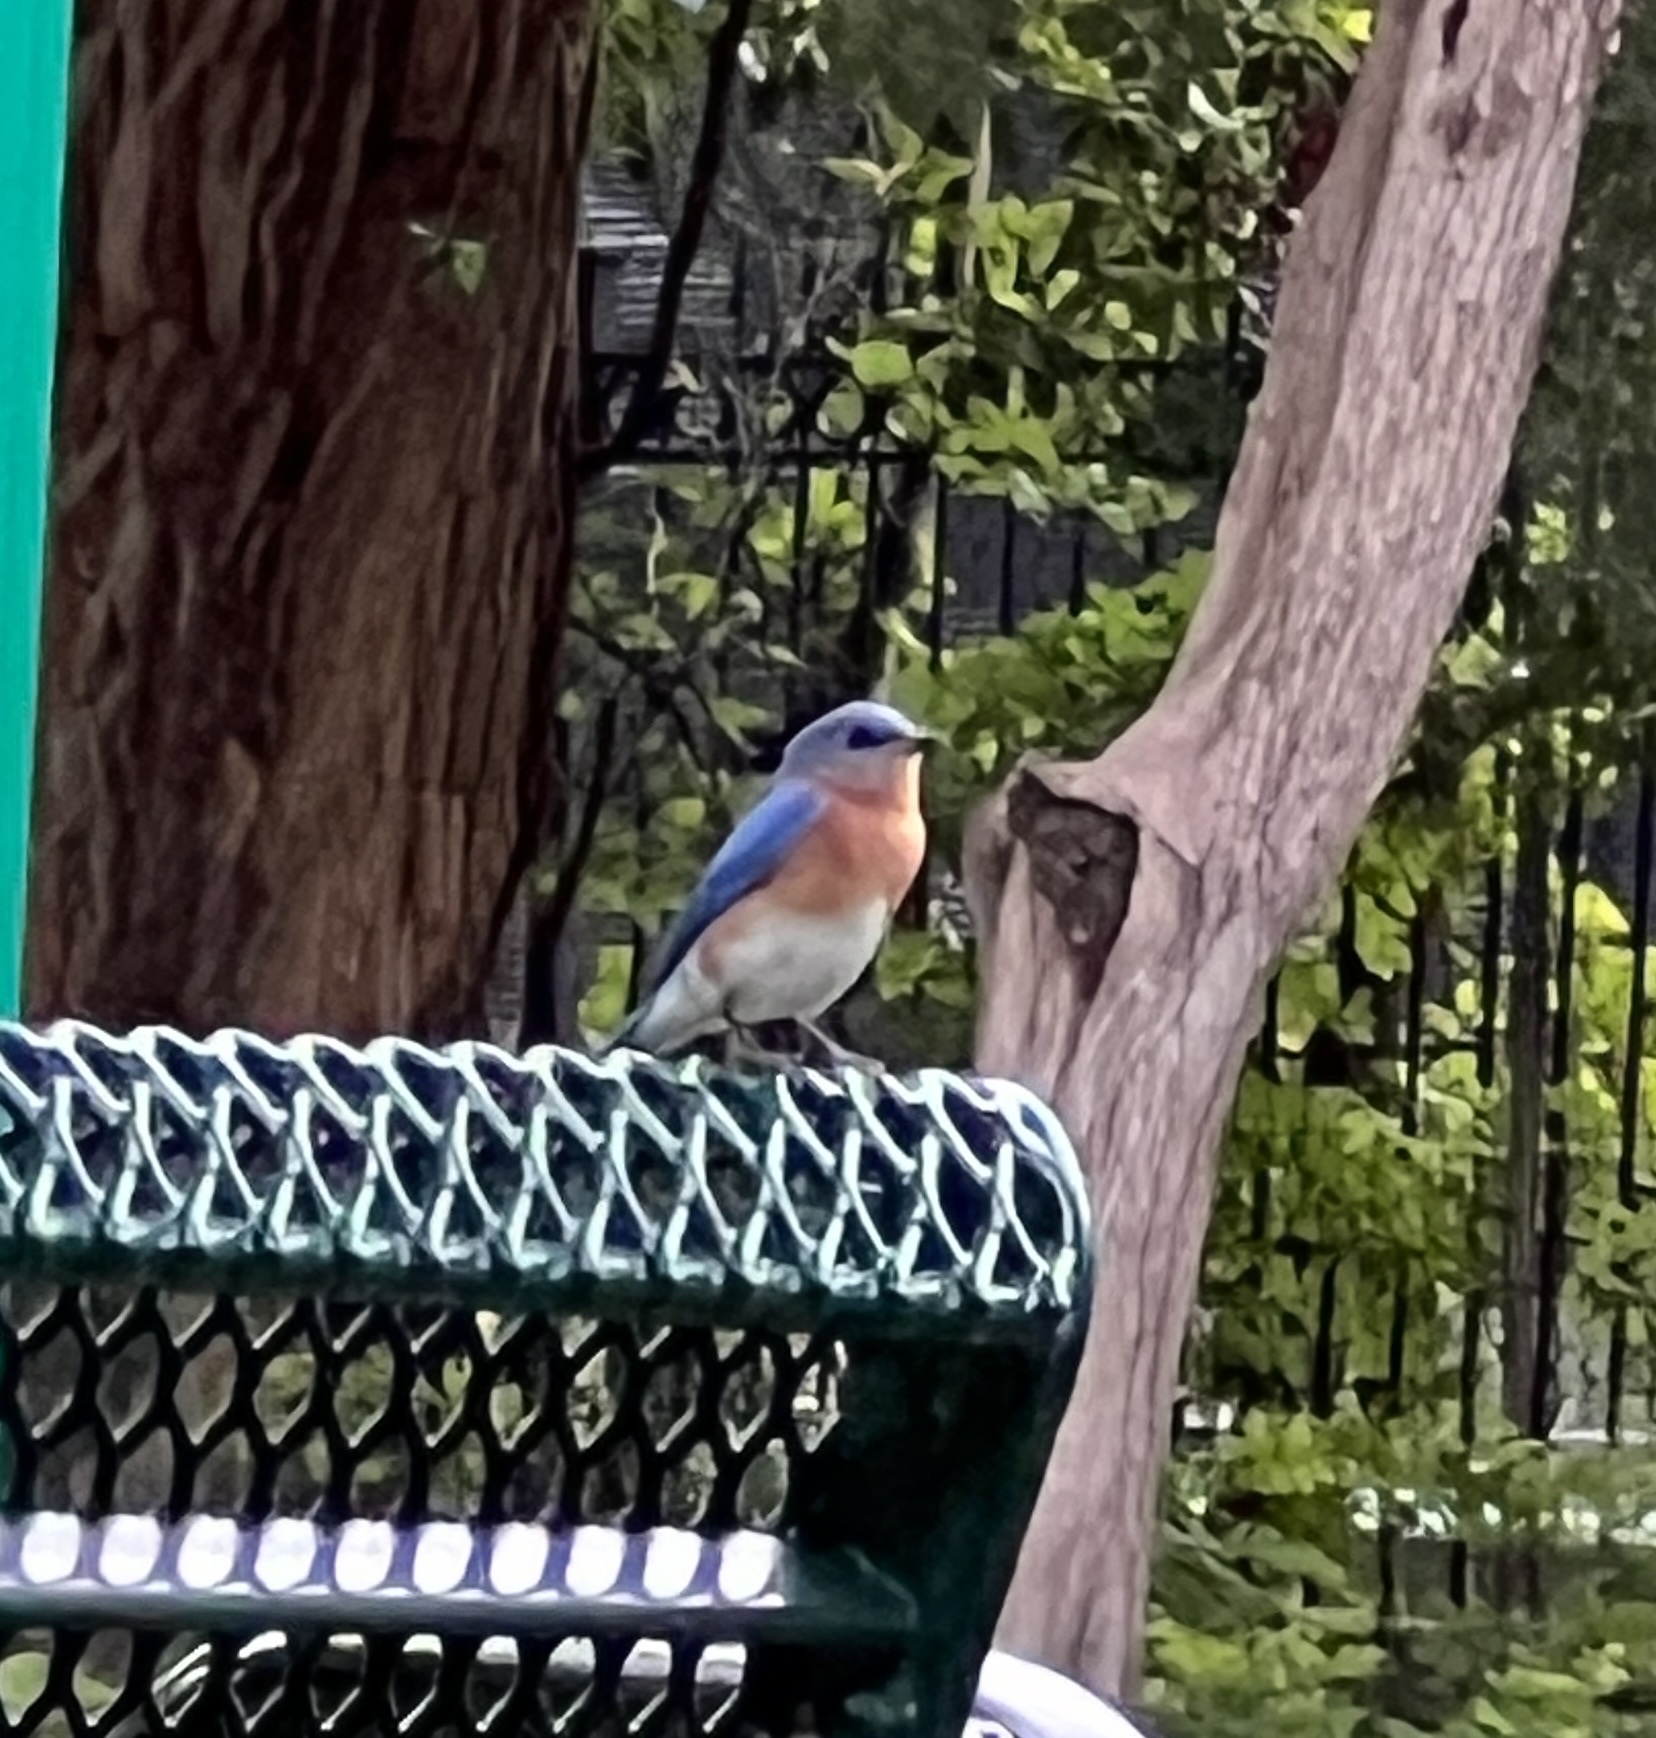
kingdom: Animalia
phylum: Chordata
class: Aves
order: Passeriformes
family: Turdidae
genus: Sialia
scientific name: Sialia sialis
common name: Eastern bluebird
